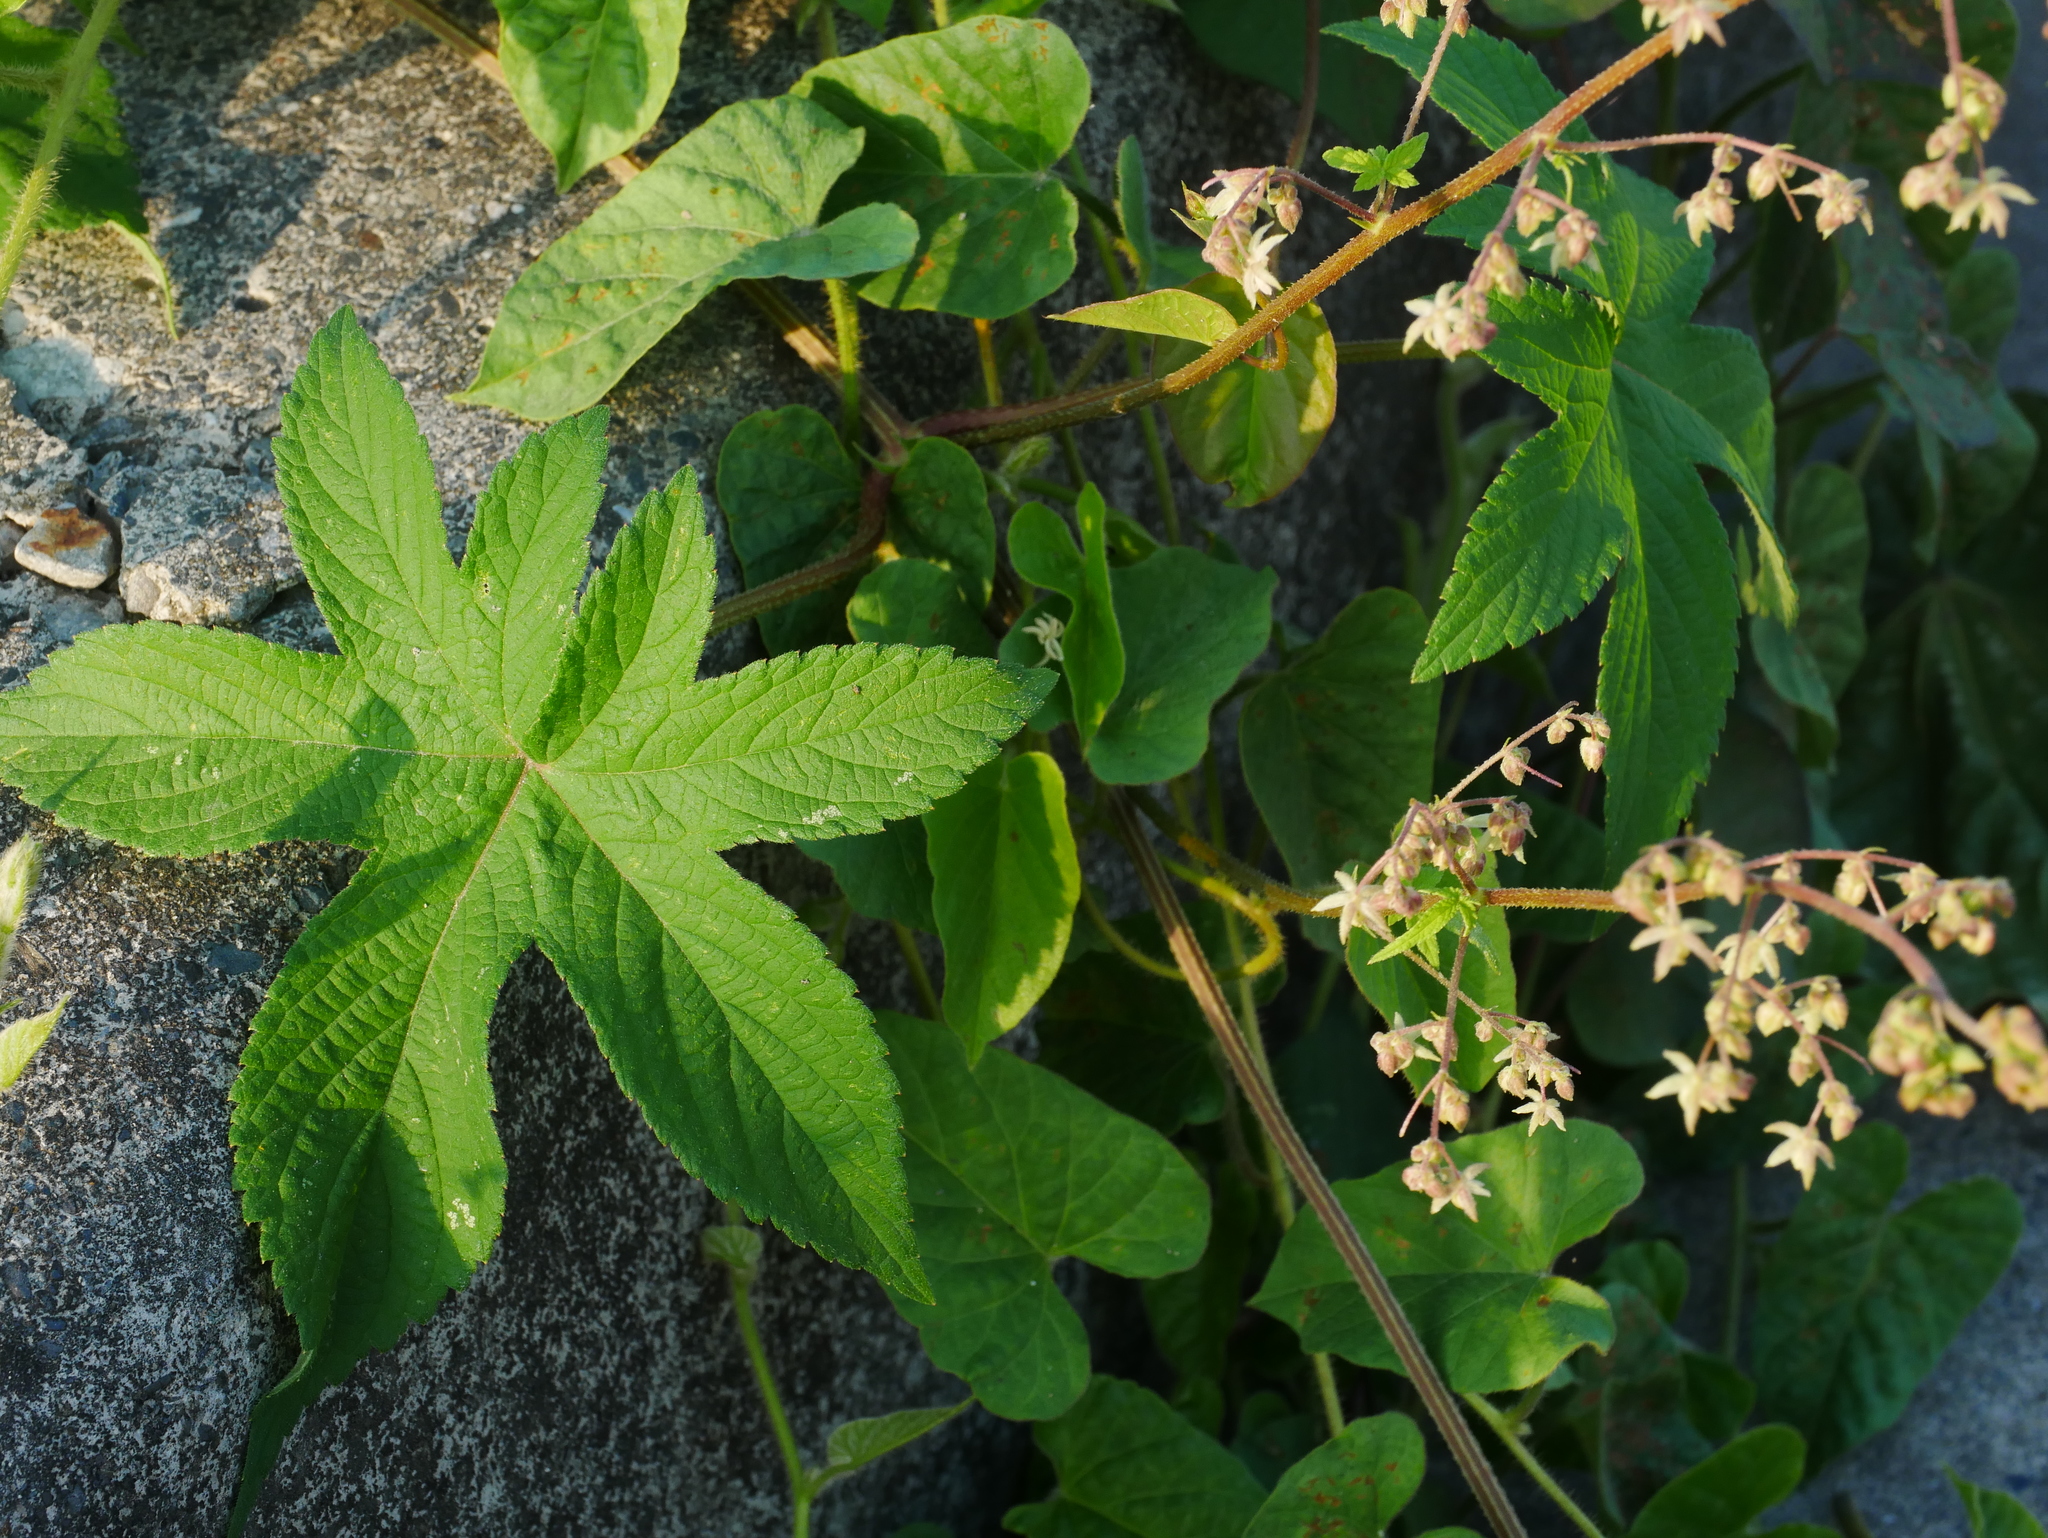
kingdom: Plantae
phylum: Tracheophyta
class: Magnoliopsida
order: Rosales
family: Cannabaceae
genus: Humulus
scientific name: Humulus scandens
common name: Japanese hop
